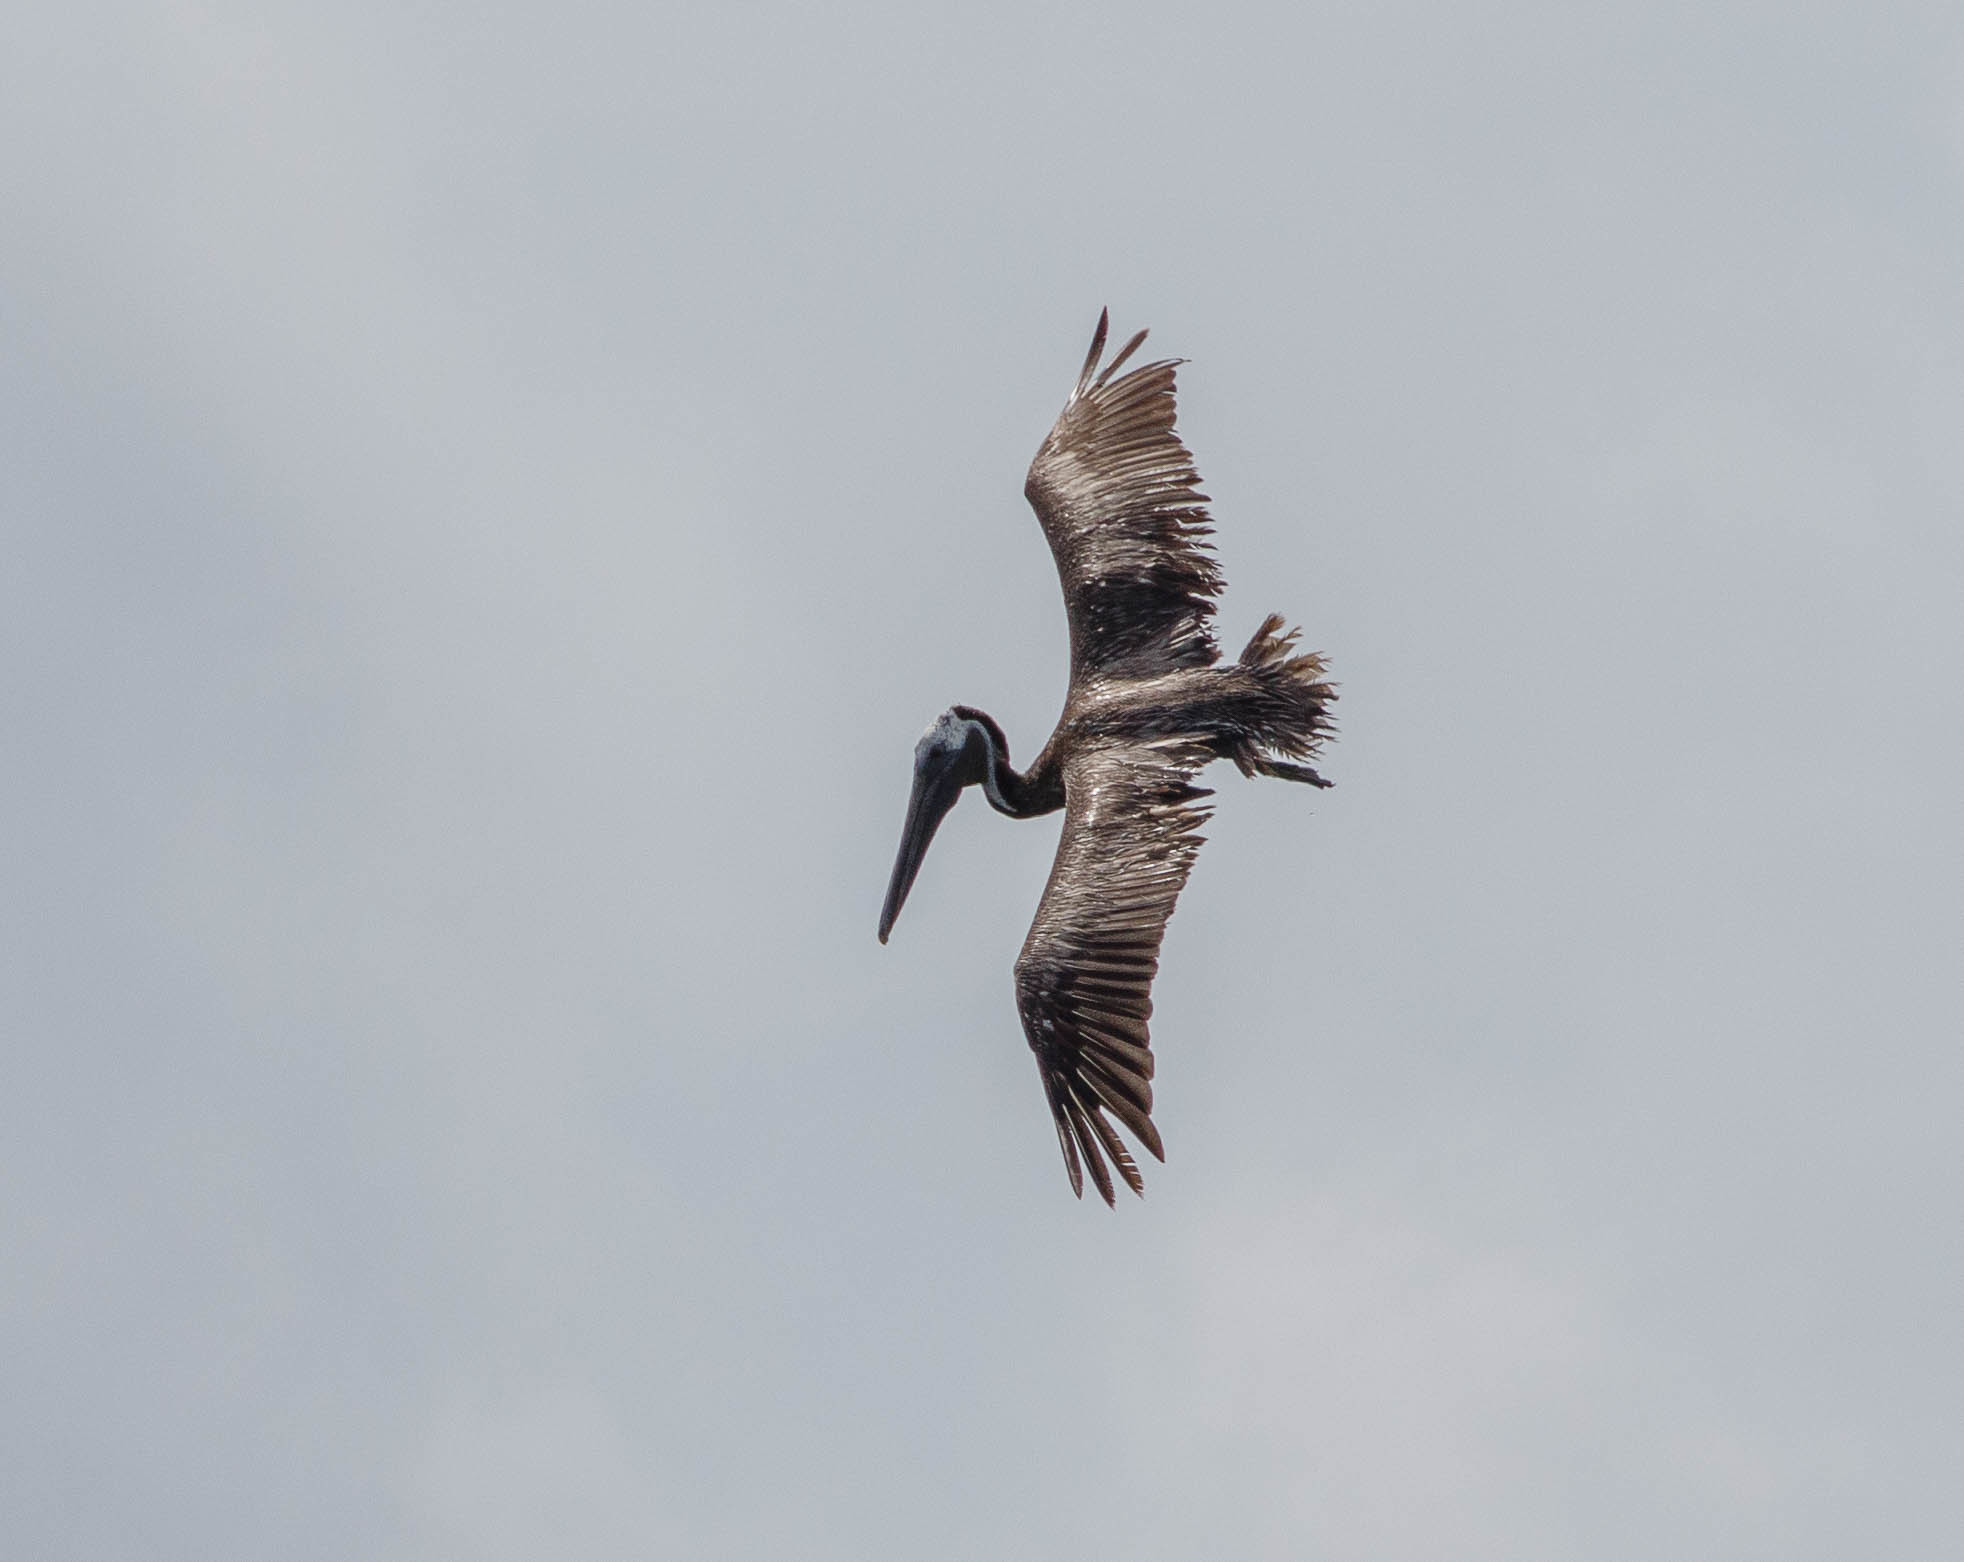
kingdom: Animalia
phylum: Chordata
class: Aves
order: Pelecaniformes
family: Pelecanidae
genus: Pelecanus
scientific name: Pelecanus occidentalis
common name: Brown pelican
